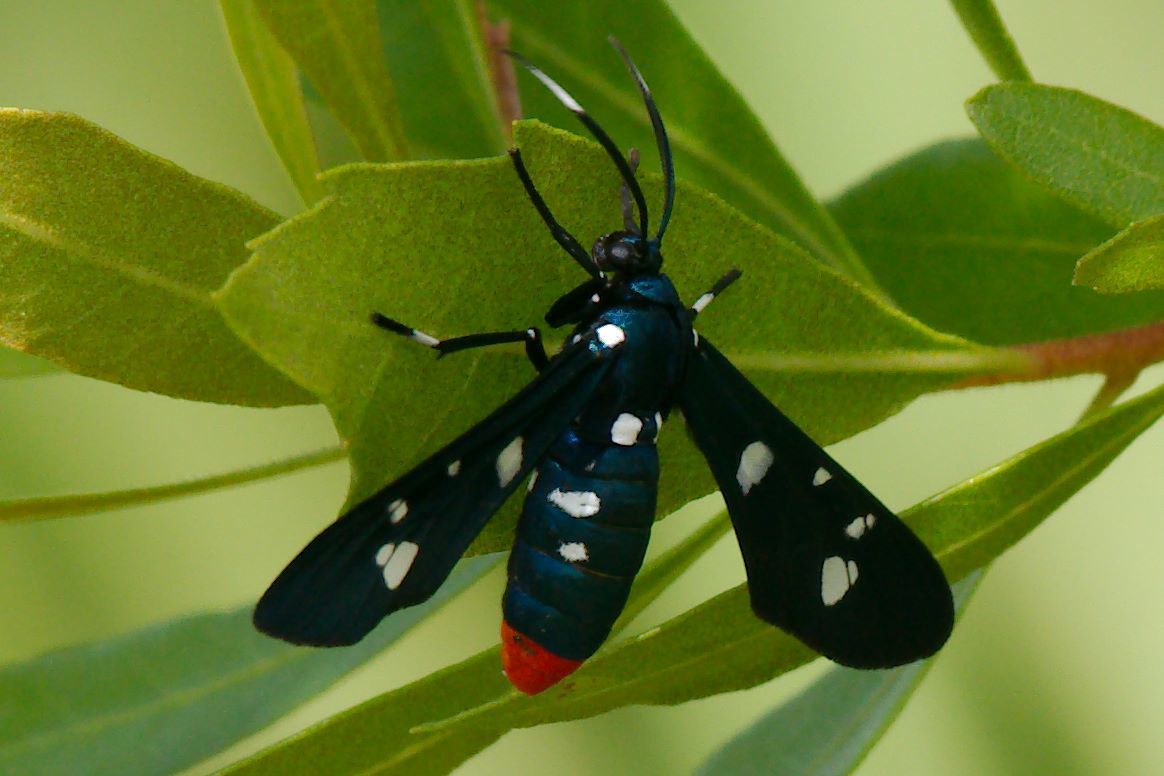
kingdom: Animalia
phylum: Arthropoda
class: Insecta
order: Lepidoptera
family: Erebidae
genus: Syntomeida
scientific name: Syntomeida epilais
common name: Polka-dot wasp moth
